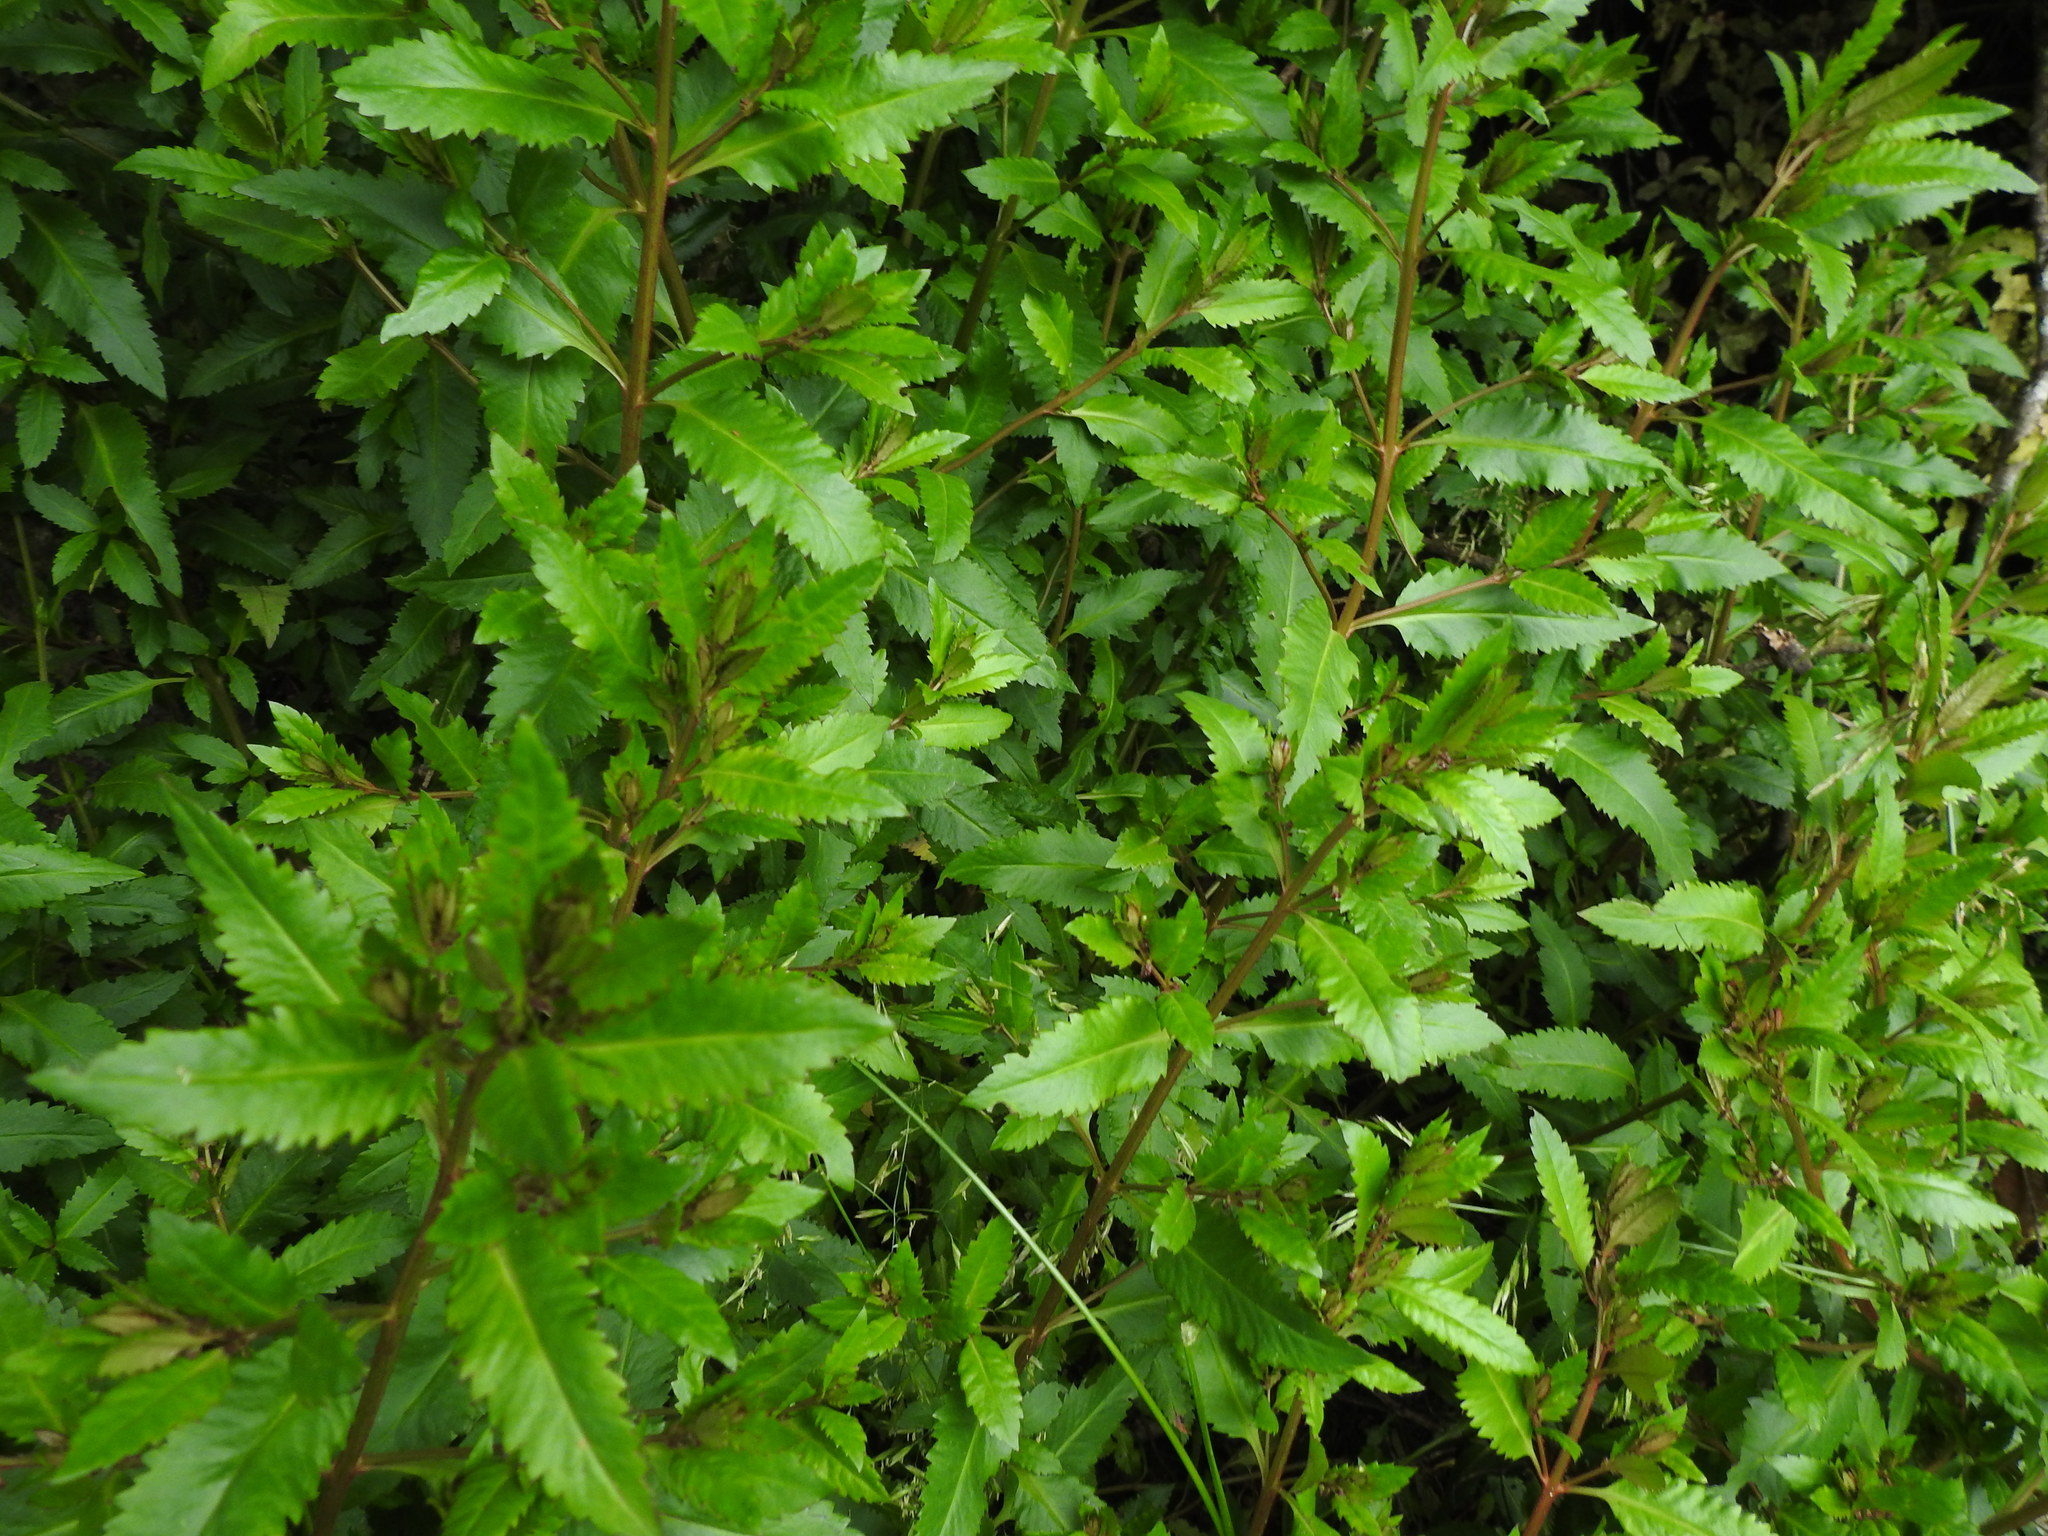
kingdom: Plantae
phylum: Tracheophyta
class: Magnoliopsida
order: Saxifragales
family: Haloragaceae
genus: Haloragis
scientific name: Haloragis erecta
